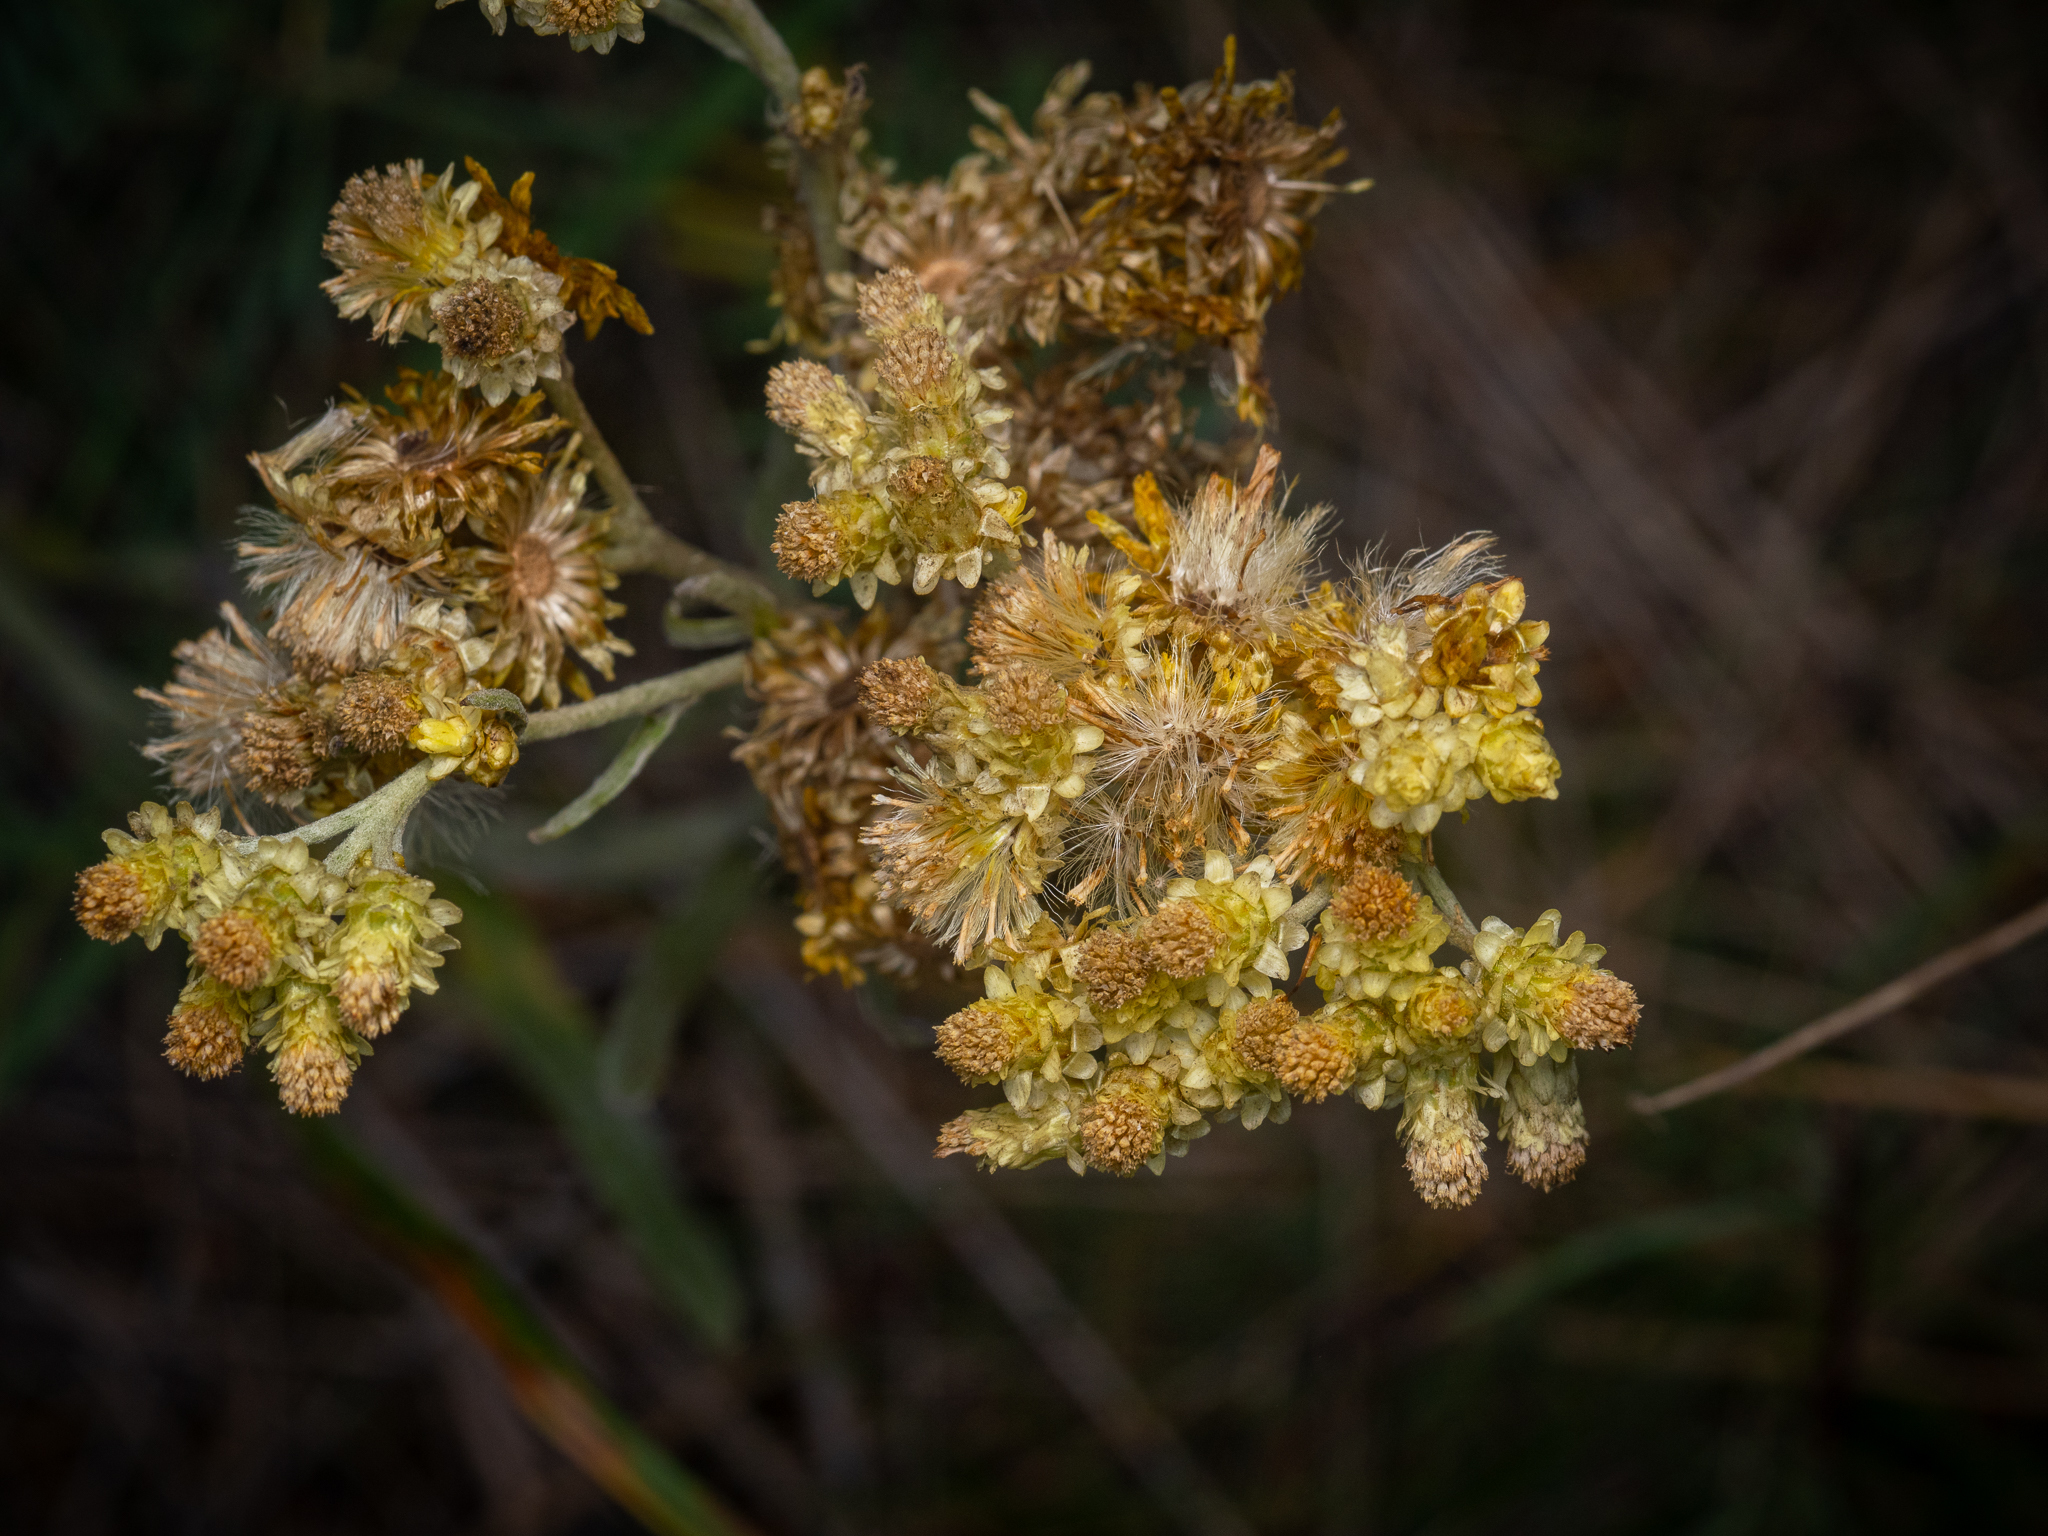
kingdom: Plantae
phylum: Tracheophyta
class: Magnoliopsida
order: Asterales
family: Asteraceae
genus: Helichrysum
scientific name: Helichrysum arenarium
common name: Strawflower
